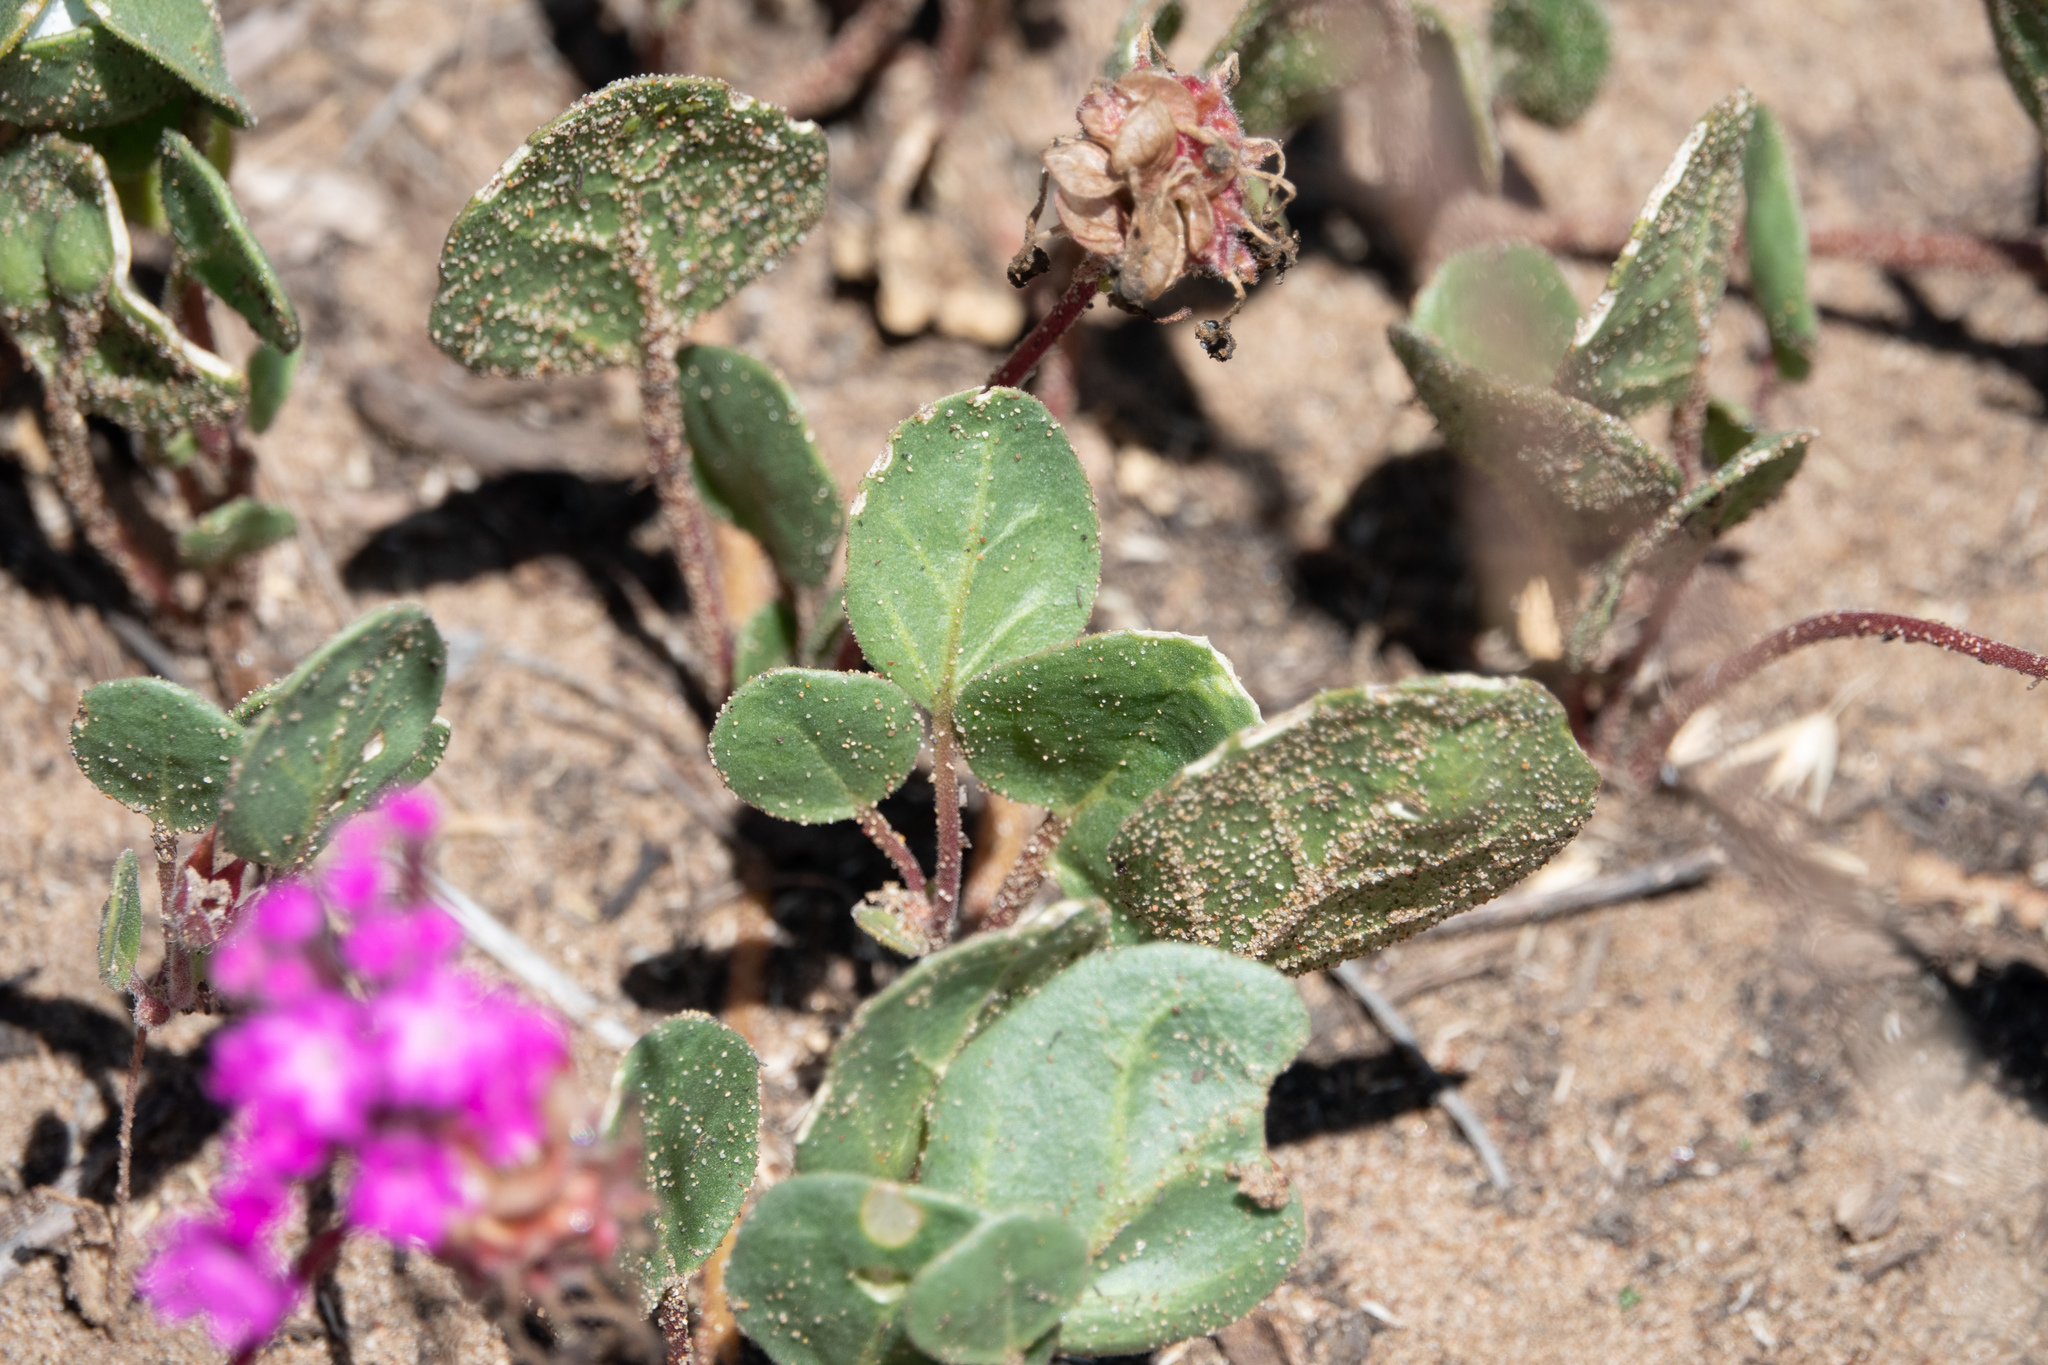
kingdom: Plantae
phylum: Tracheophyta
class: Magnoliopsida
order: Caryophyllales
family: Nyctaginaceae
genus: Abronia
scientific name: Abronia umbellata
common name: Sand-verbena
